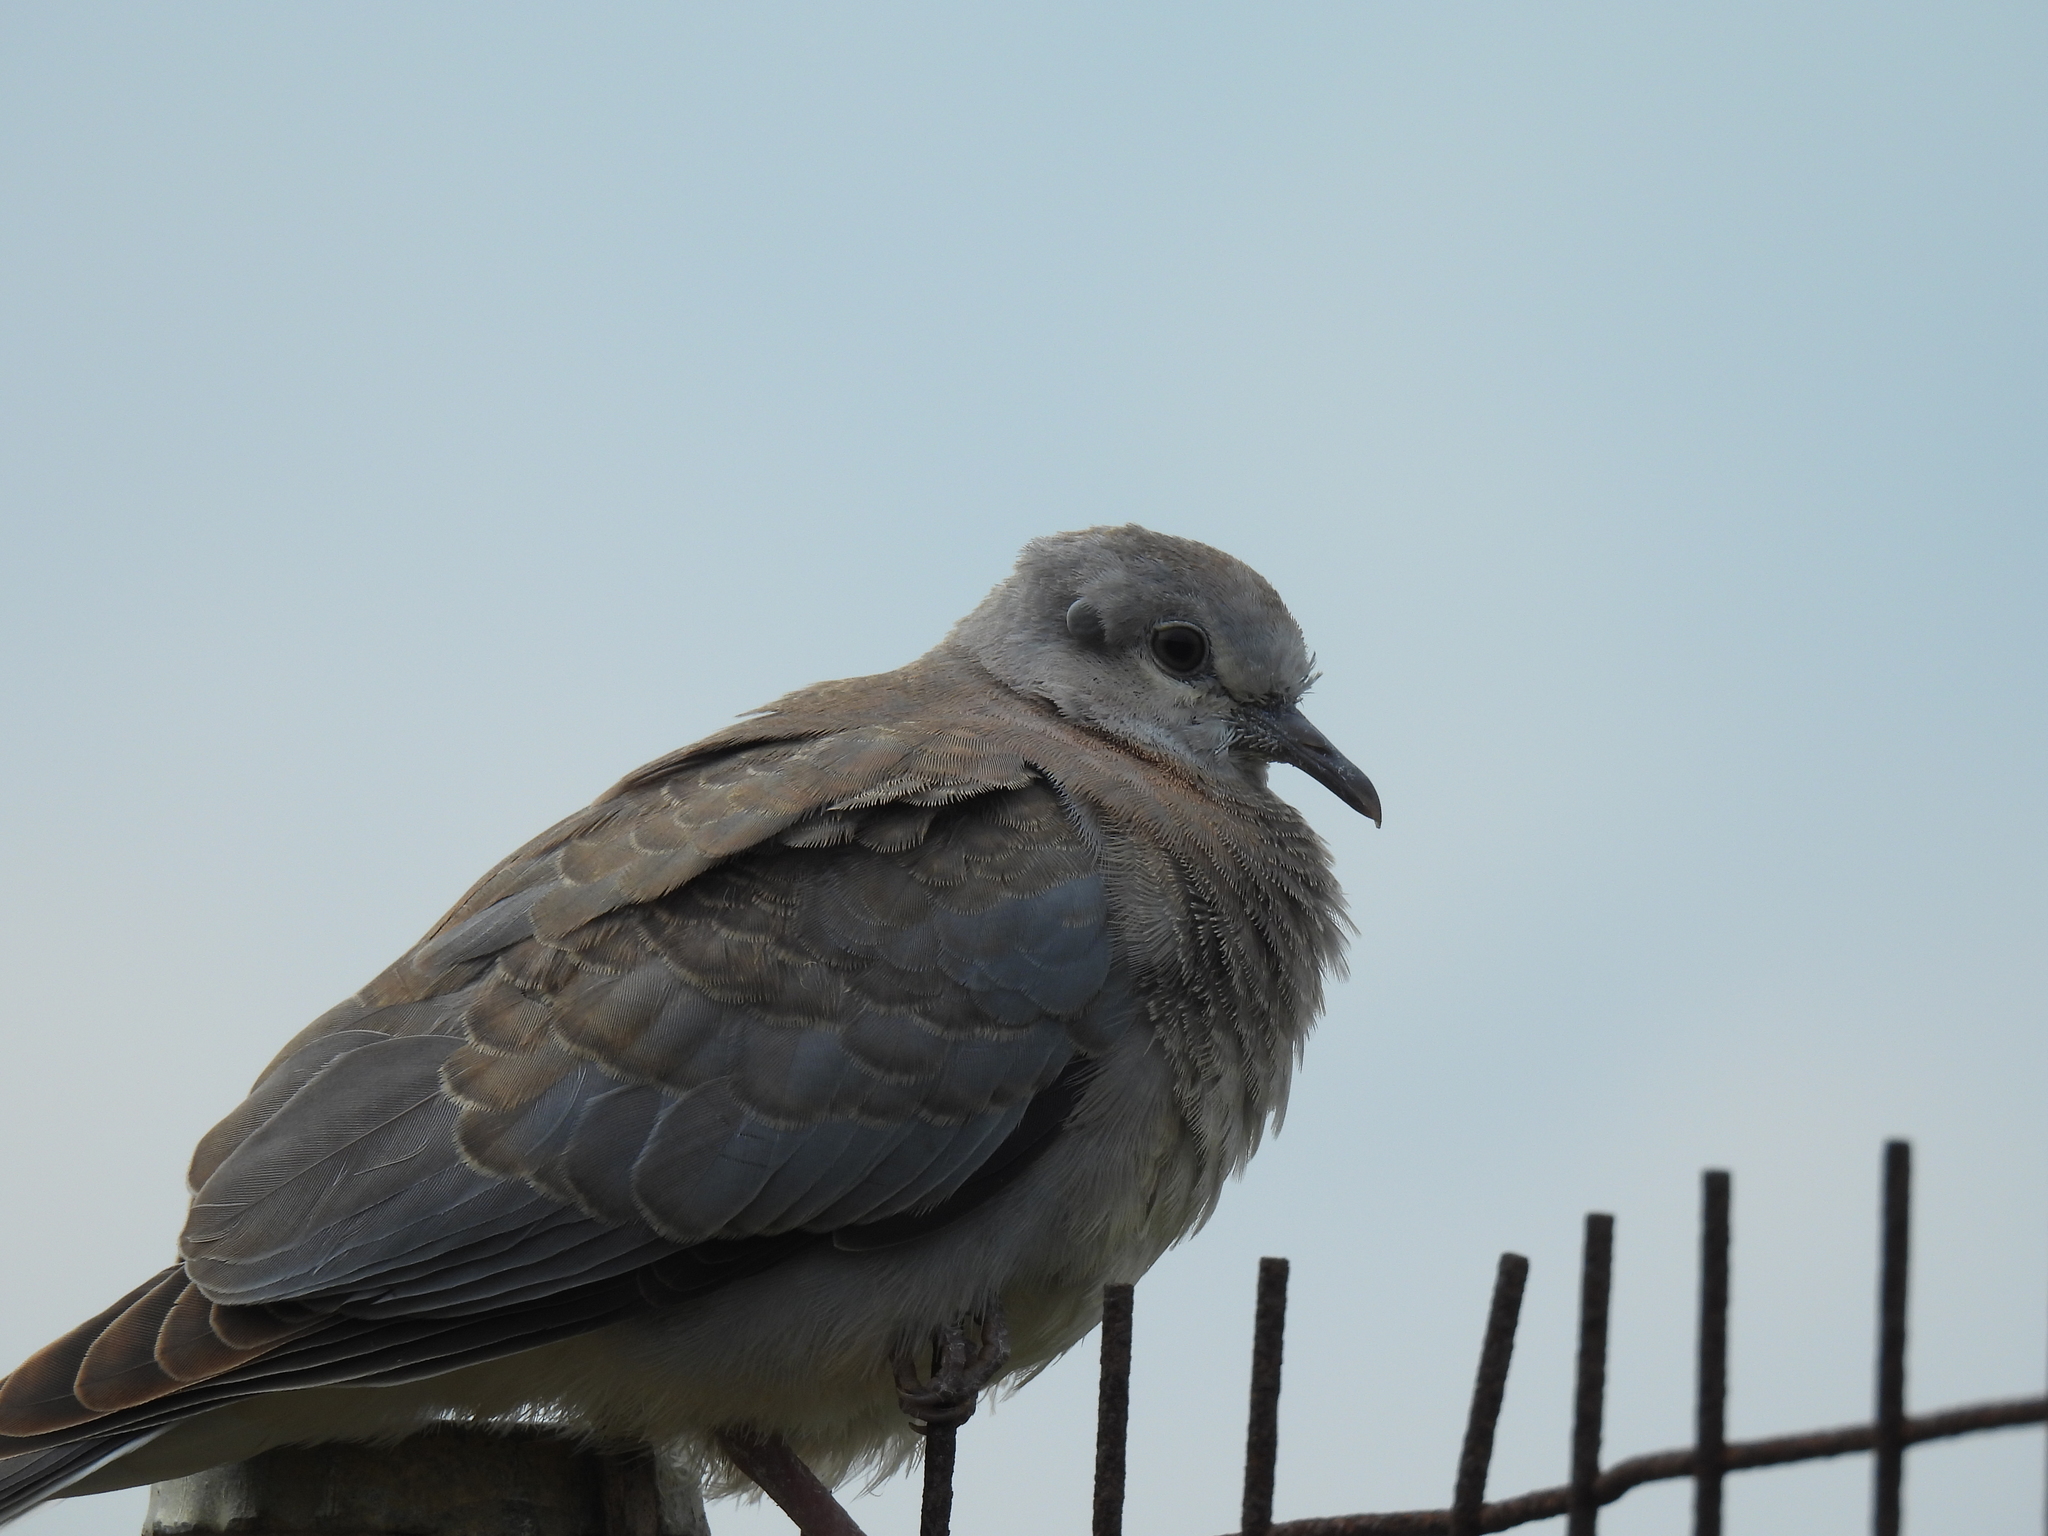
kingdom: Animalia
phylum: Chordata
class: Aves
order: Columbiformes
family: Columbidae
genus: Spilopelia
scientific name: Spilopelia senegalensis
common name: Laughing dove
